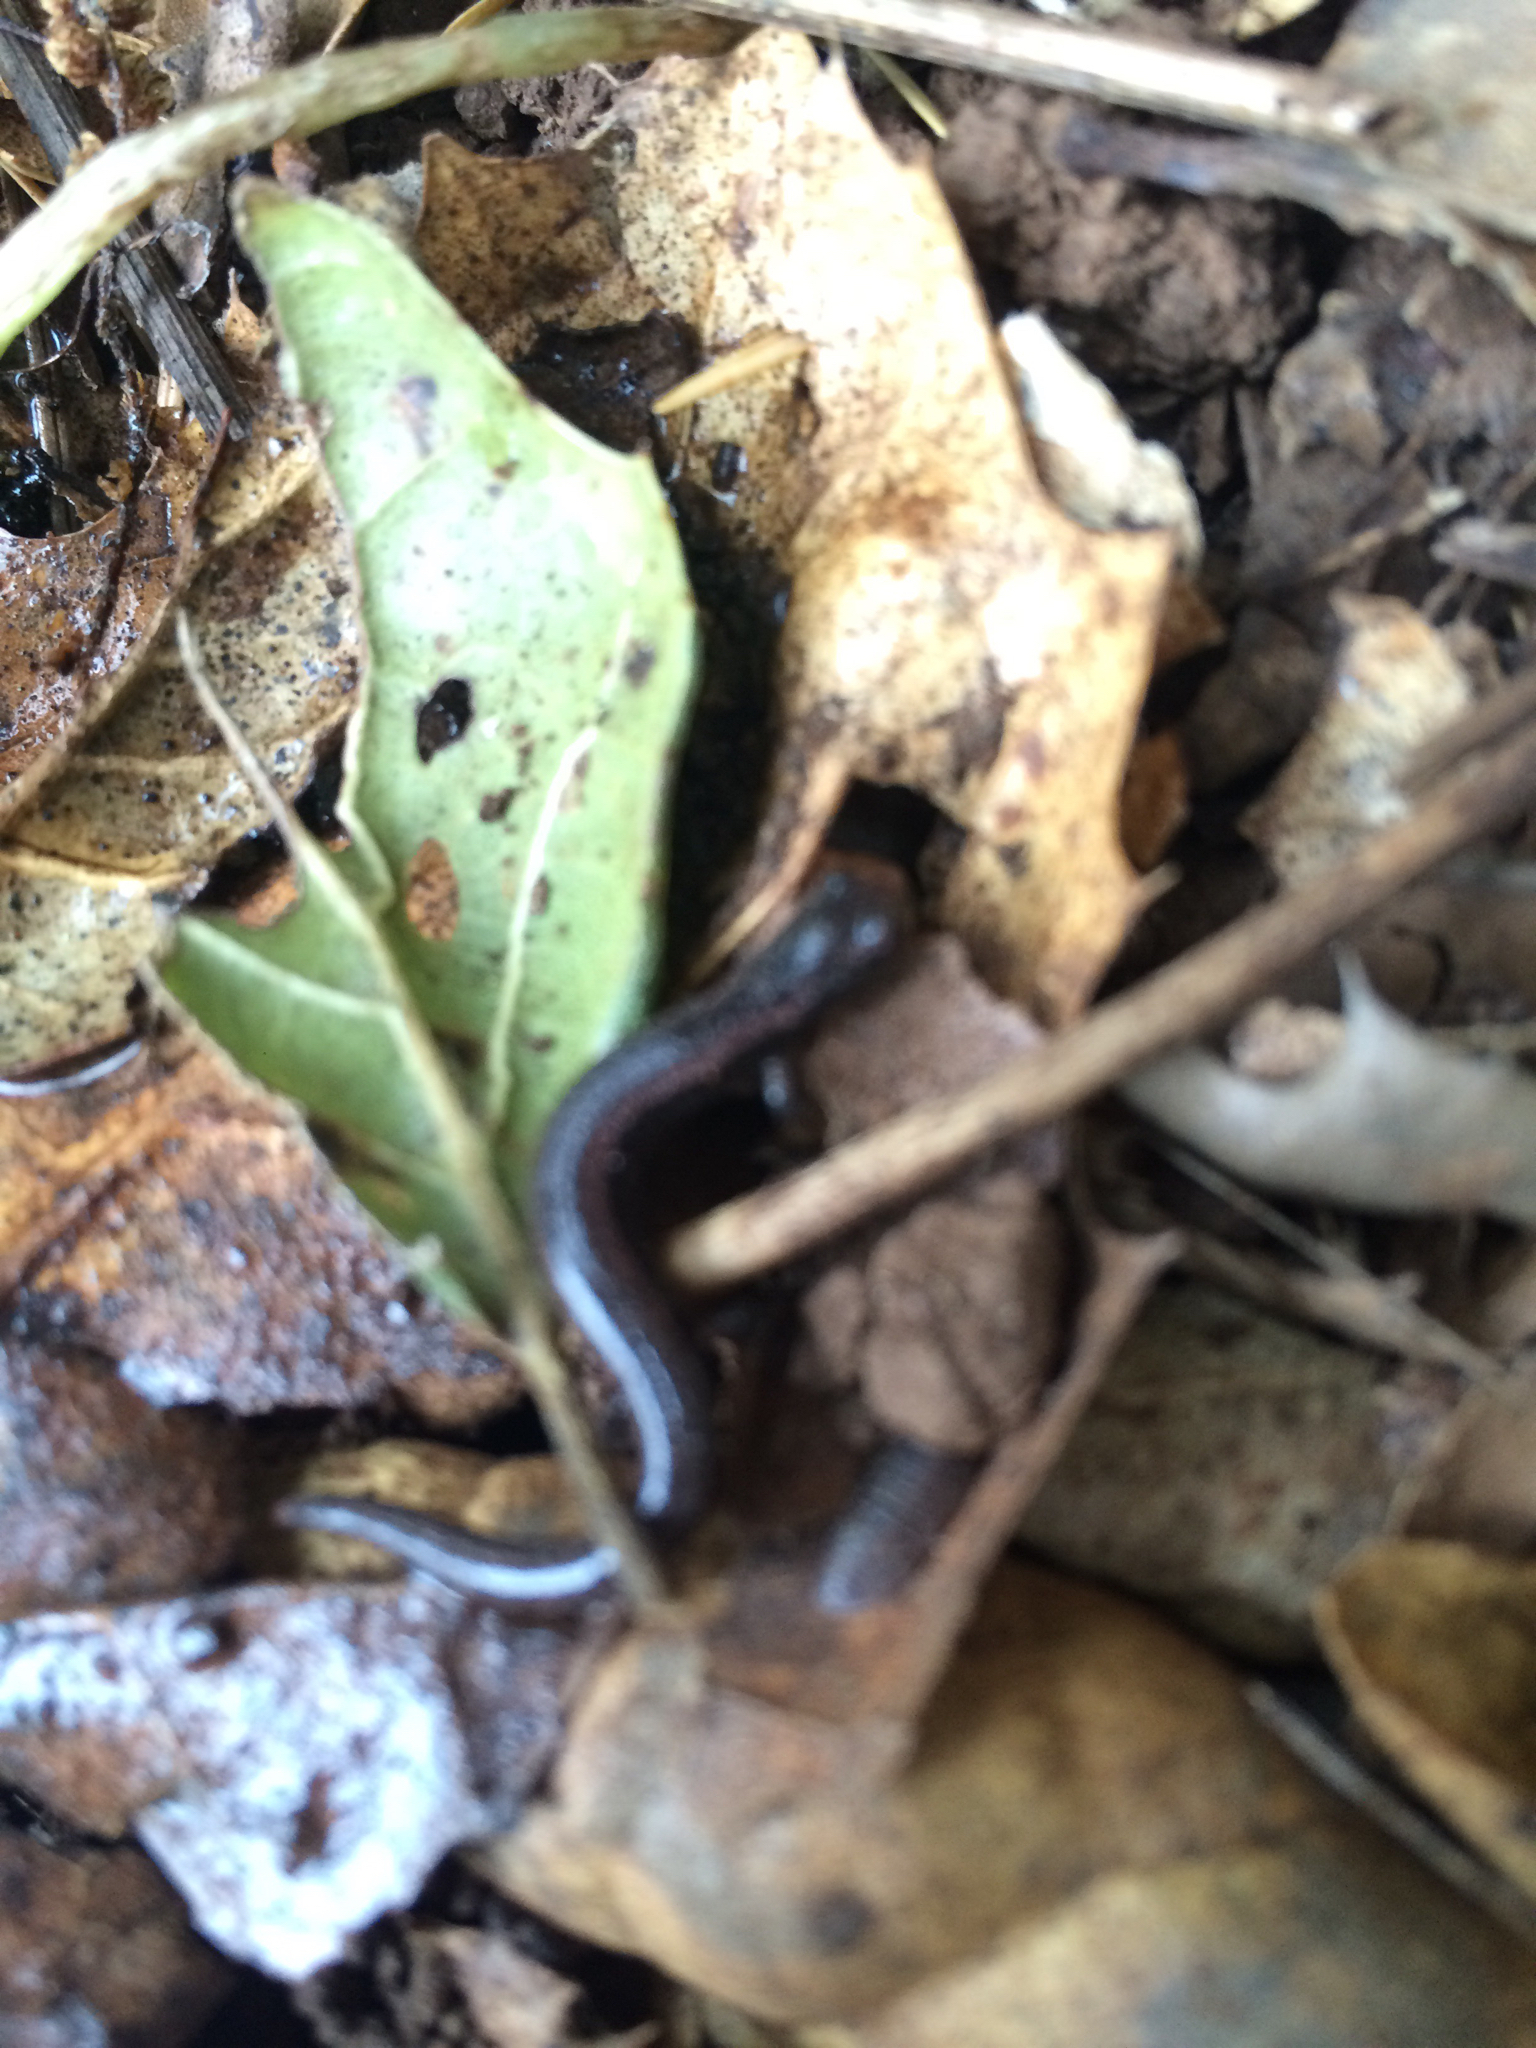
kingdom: Animalia
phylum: Chordata
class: Amphibia
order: Caudata
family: Plethodontidae
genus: Batrachoseps
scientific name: Batrachoseps attenuatus
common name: California slender salamander
